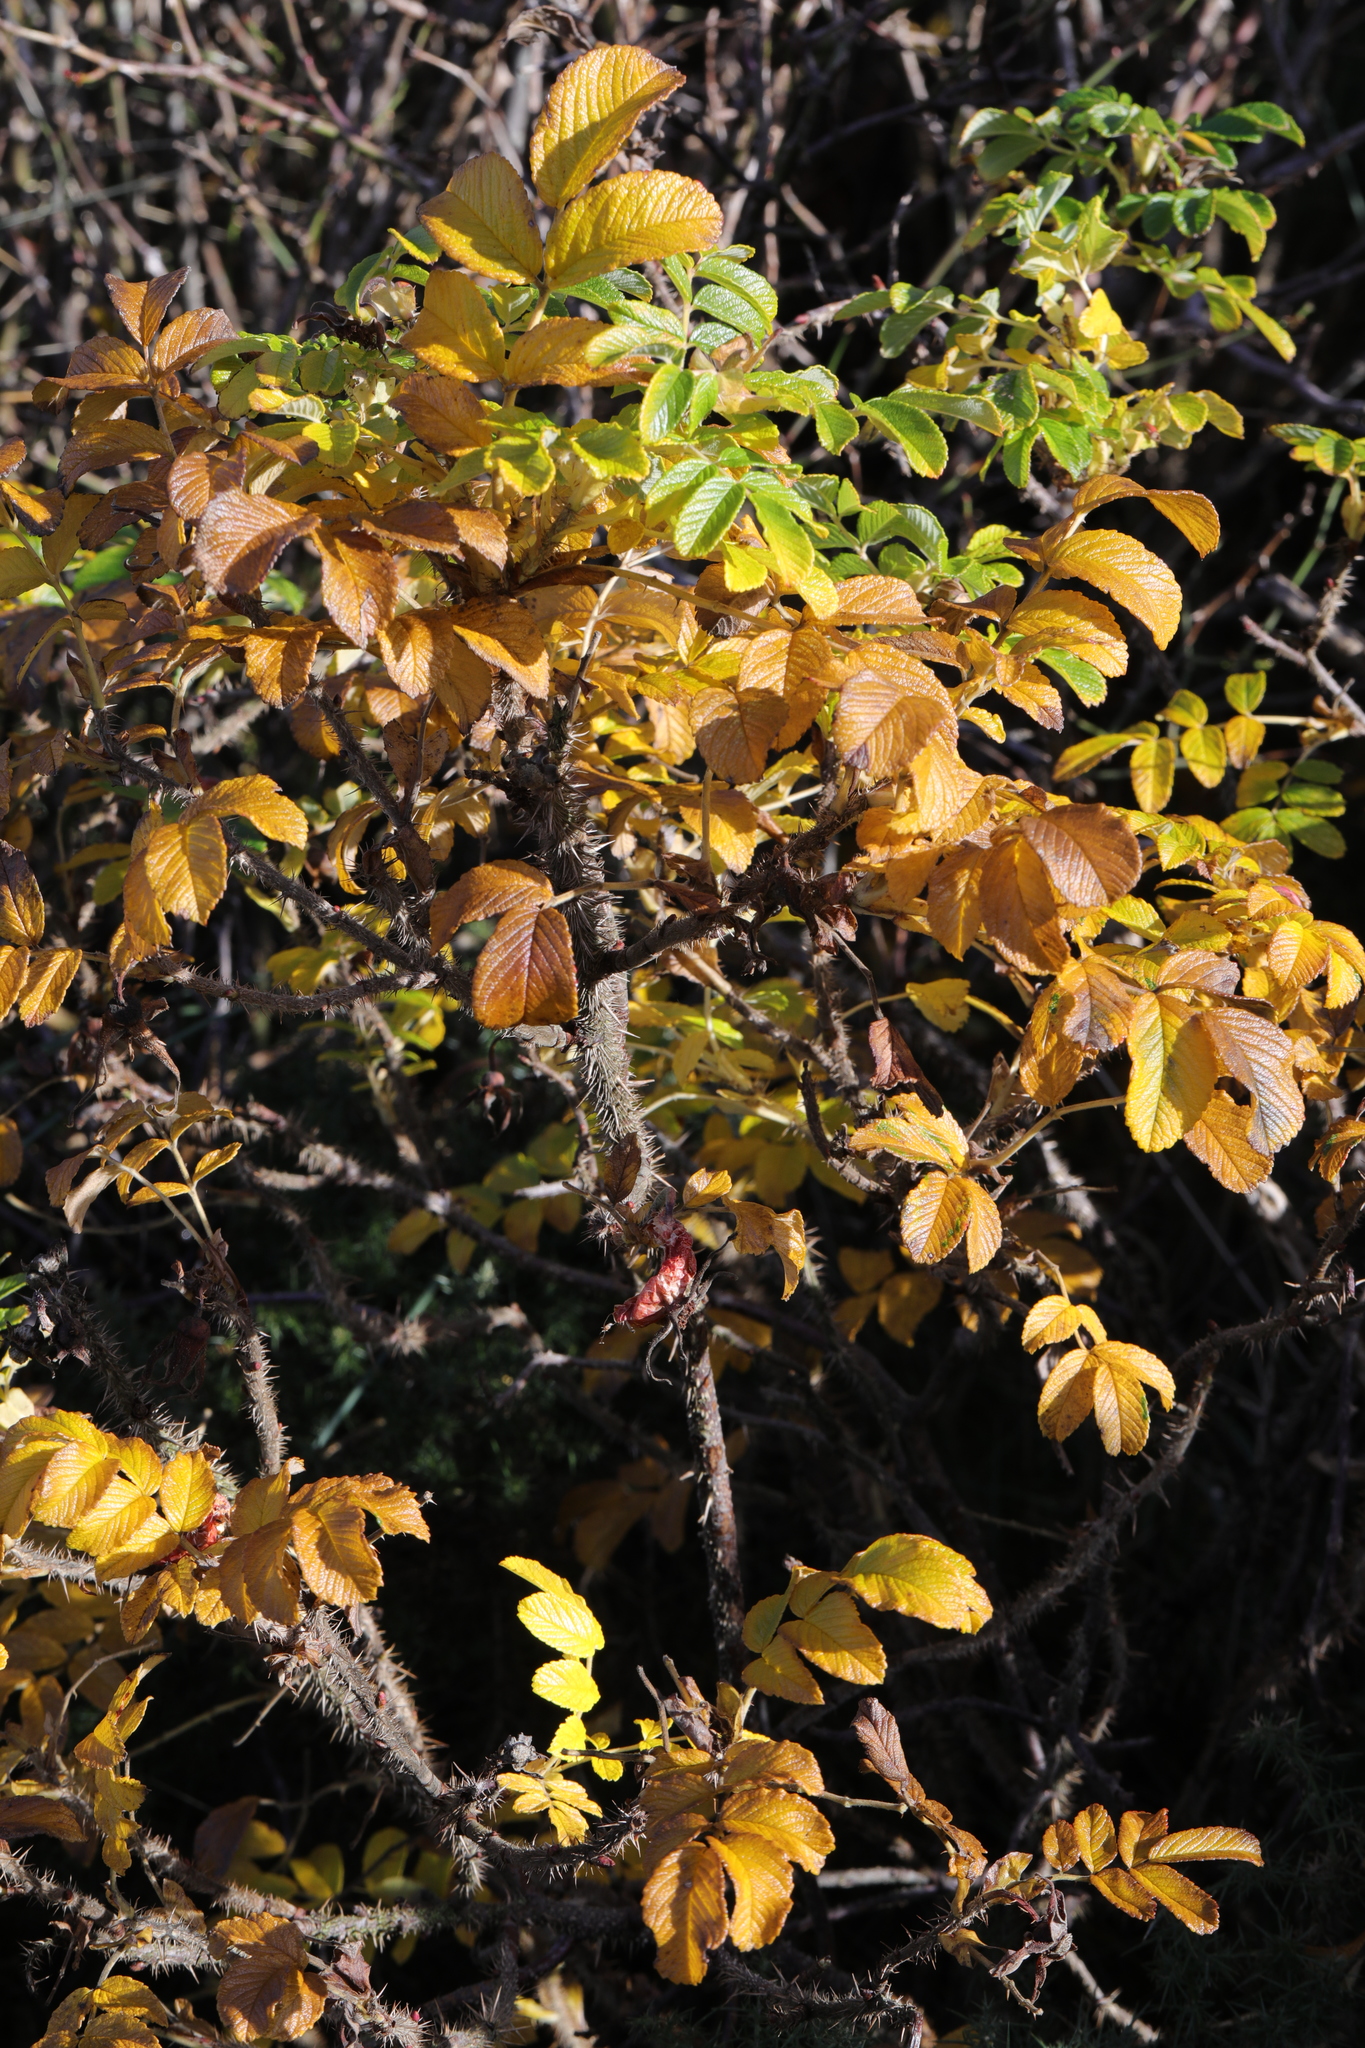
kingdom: Plantae
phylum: Tracheophyta
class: Magnoliopsida
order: Rosales
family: Rosaceae
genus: Rosa
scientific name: Rosa rugosa
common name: Japanese rose
